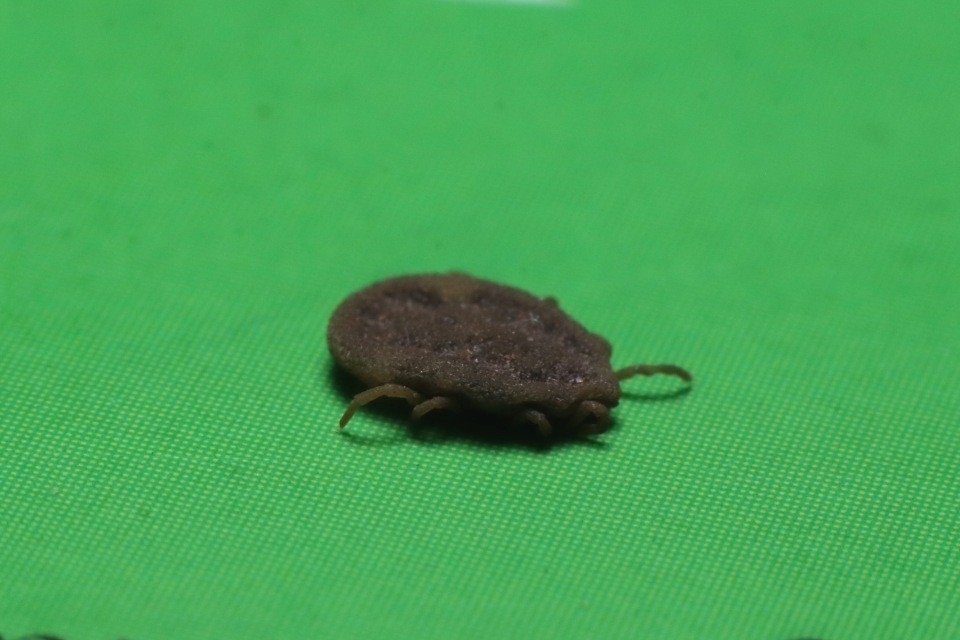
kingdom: Animalia
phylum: Arthropoda
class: Arachnida
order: Ixodida
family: Argasidae
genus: Carios
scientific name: Carios kelleyi
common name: Bat tick
